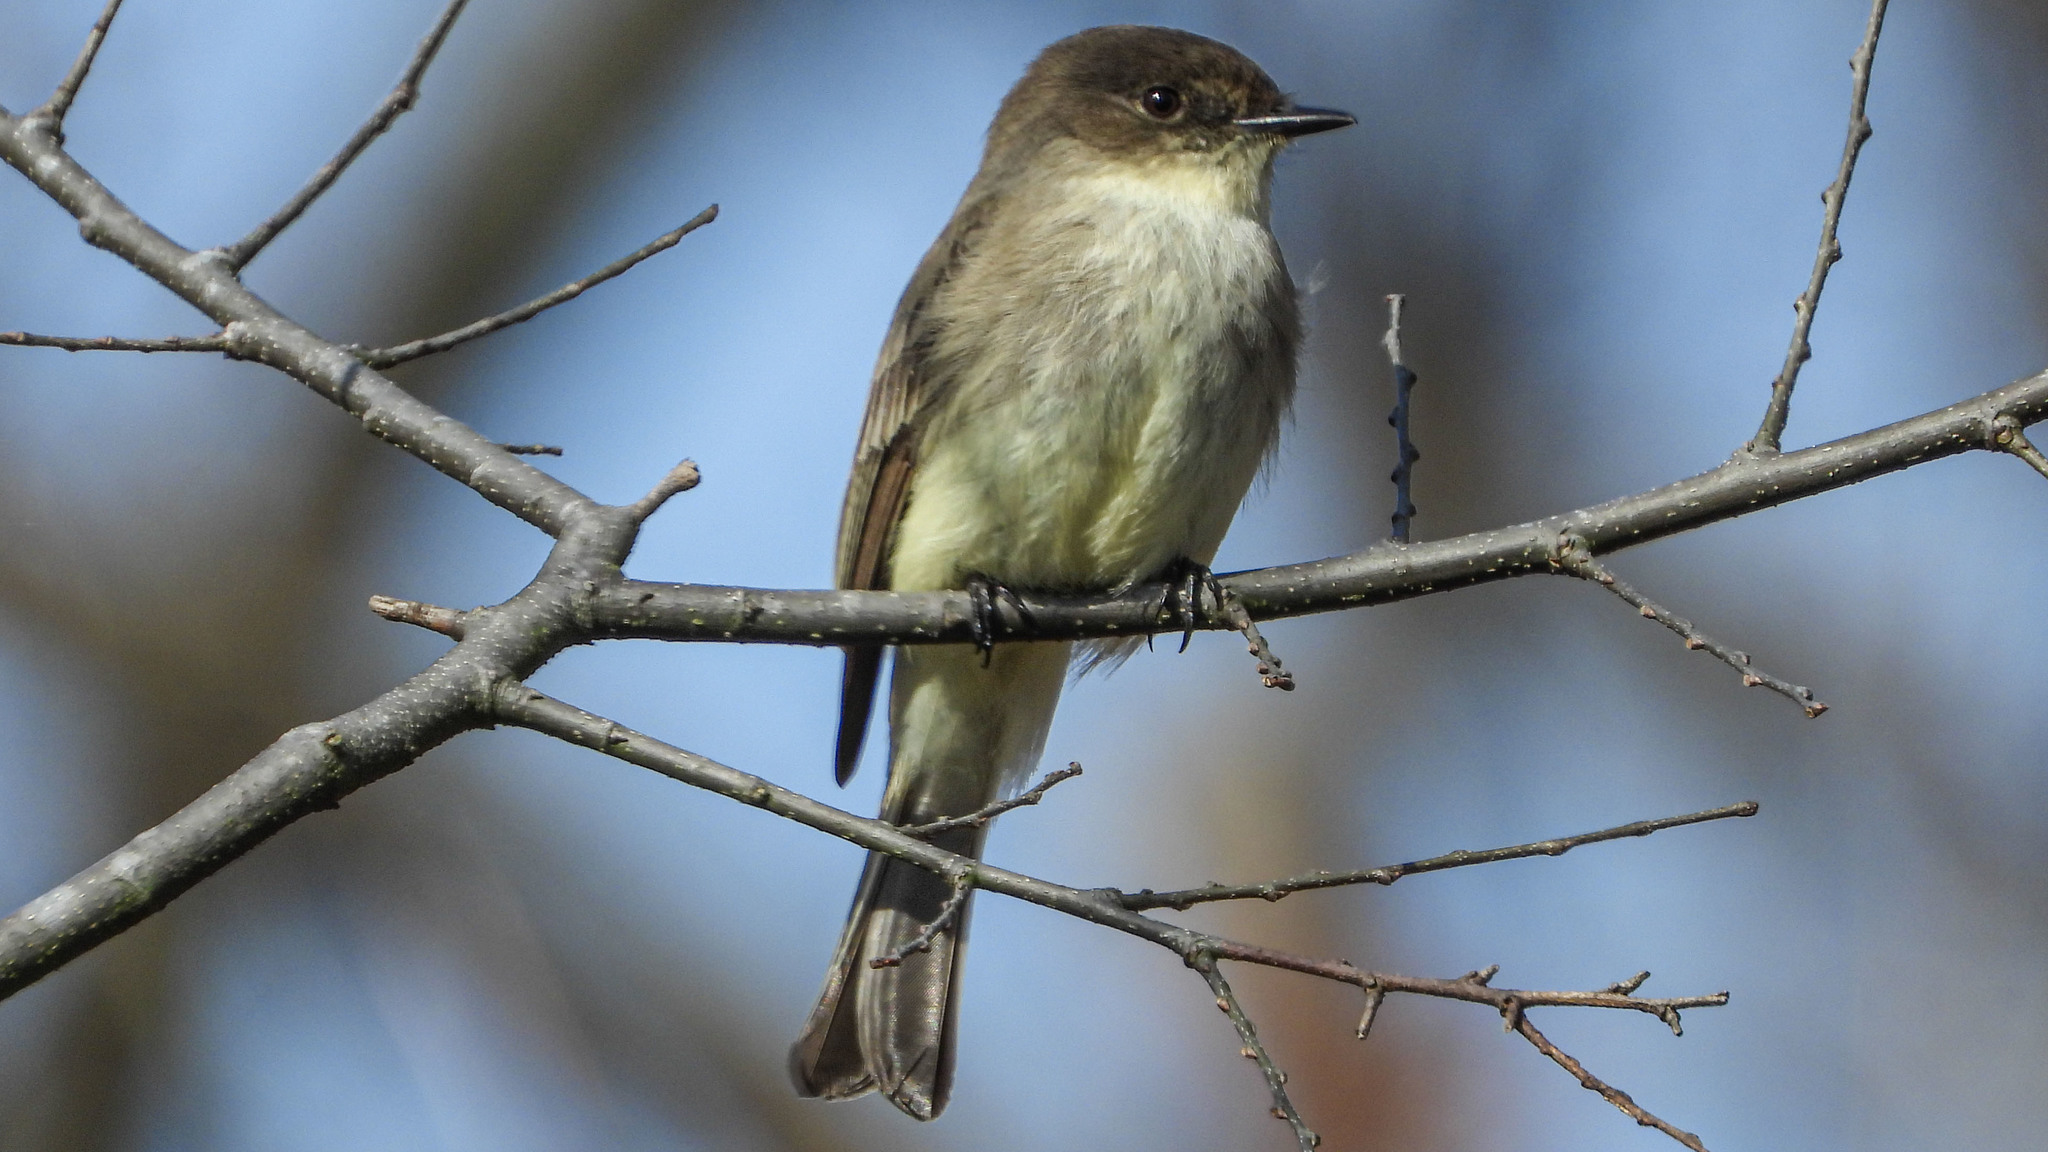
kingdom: Animalia
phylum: Chordata
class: Aves
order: Passeriformes
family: Tyrannidae
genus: Sayornis
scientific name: Sayornis phoebe
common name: Eastern phoebe
